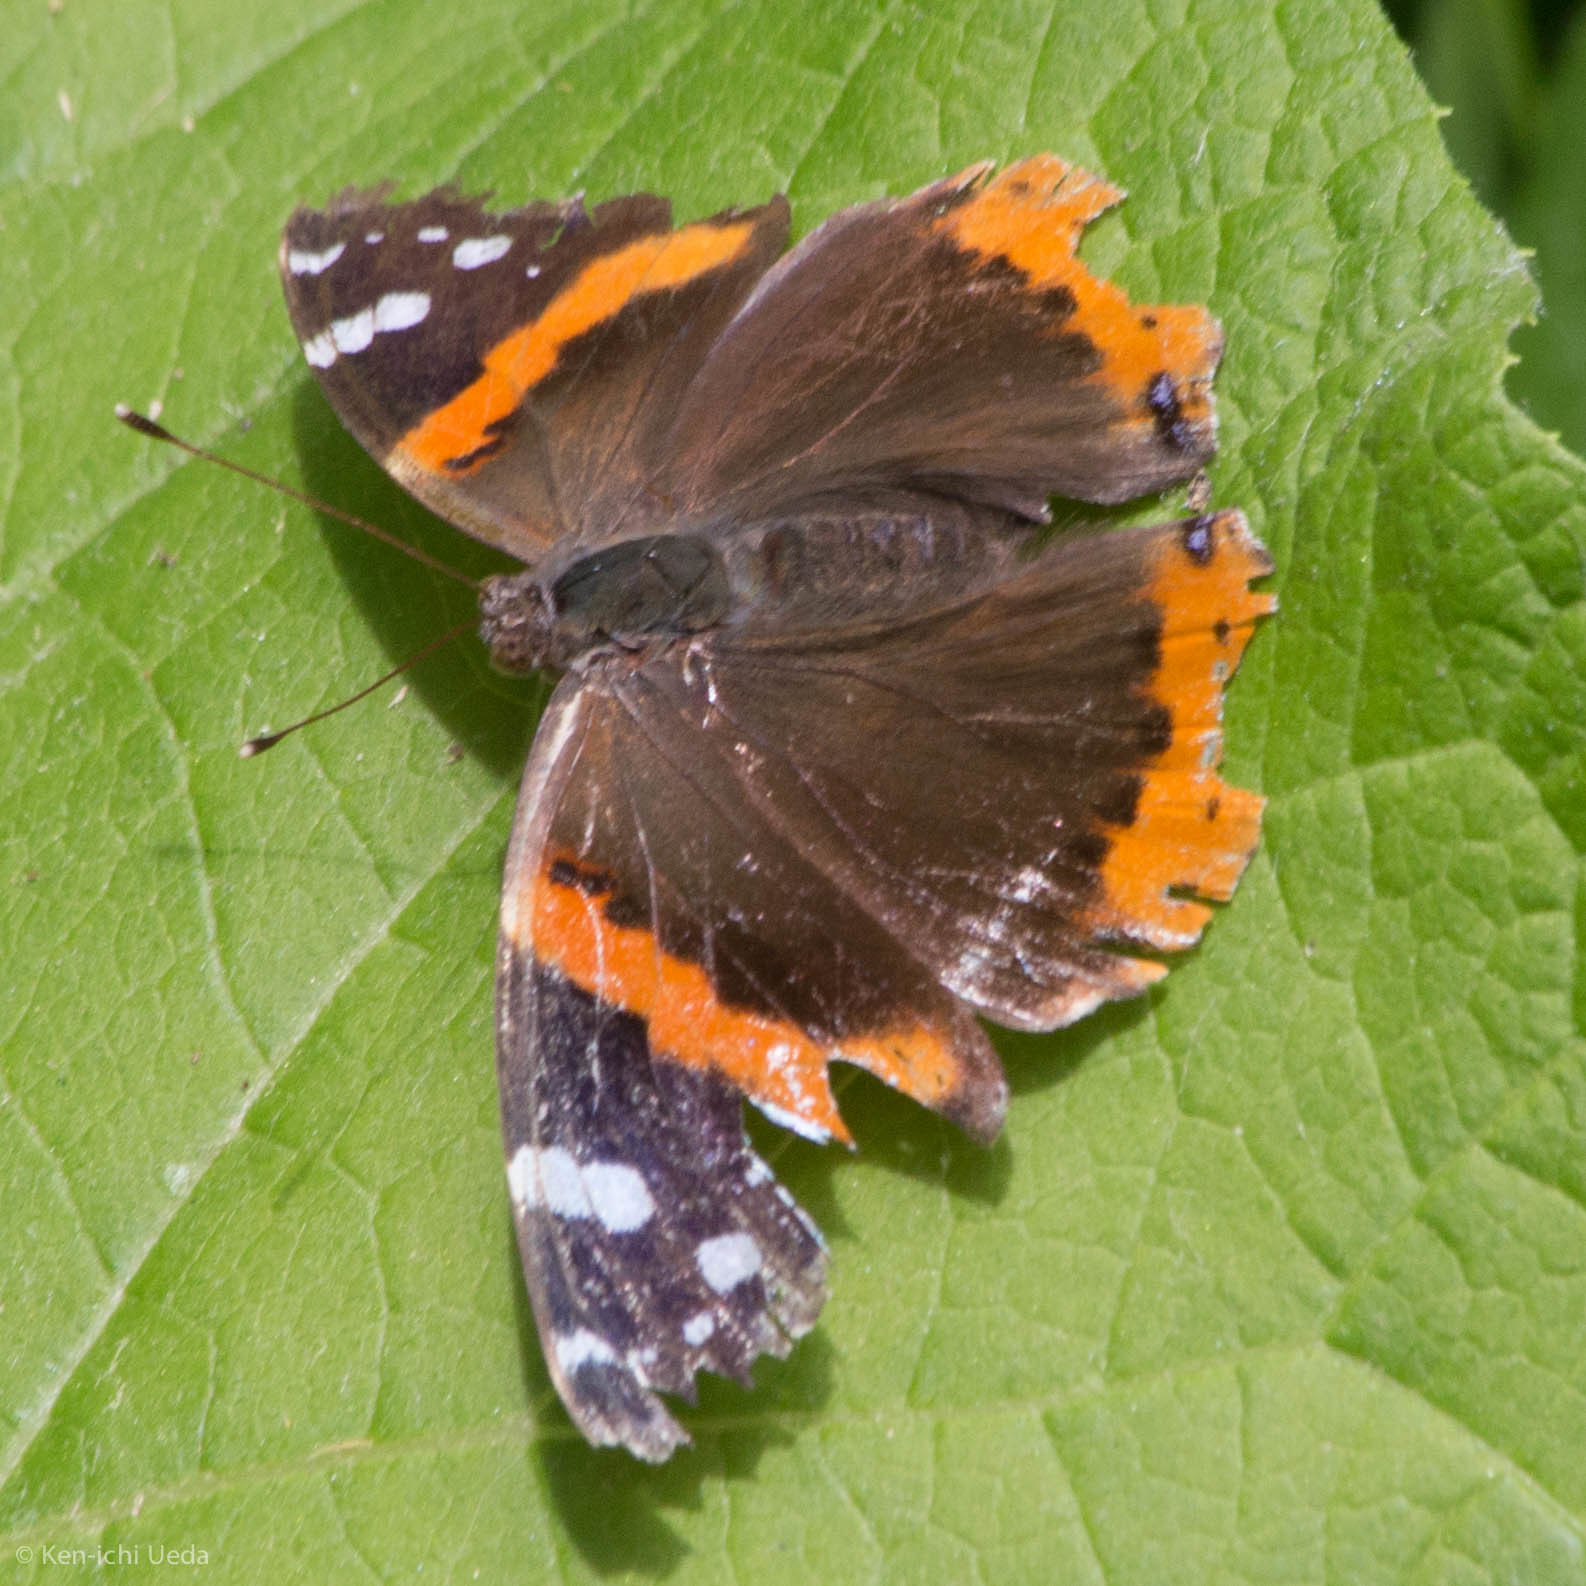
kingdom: Animalia
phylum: Arthropoda
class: Insecta
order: Lepidoptera
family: Nymphalidae
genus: Vanessa
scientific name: Vanessa atalanta
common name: Red admiral
